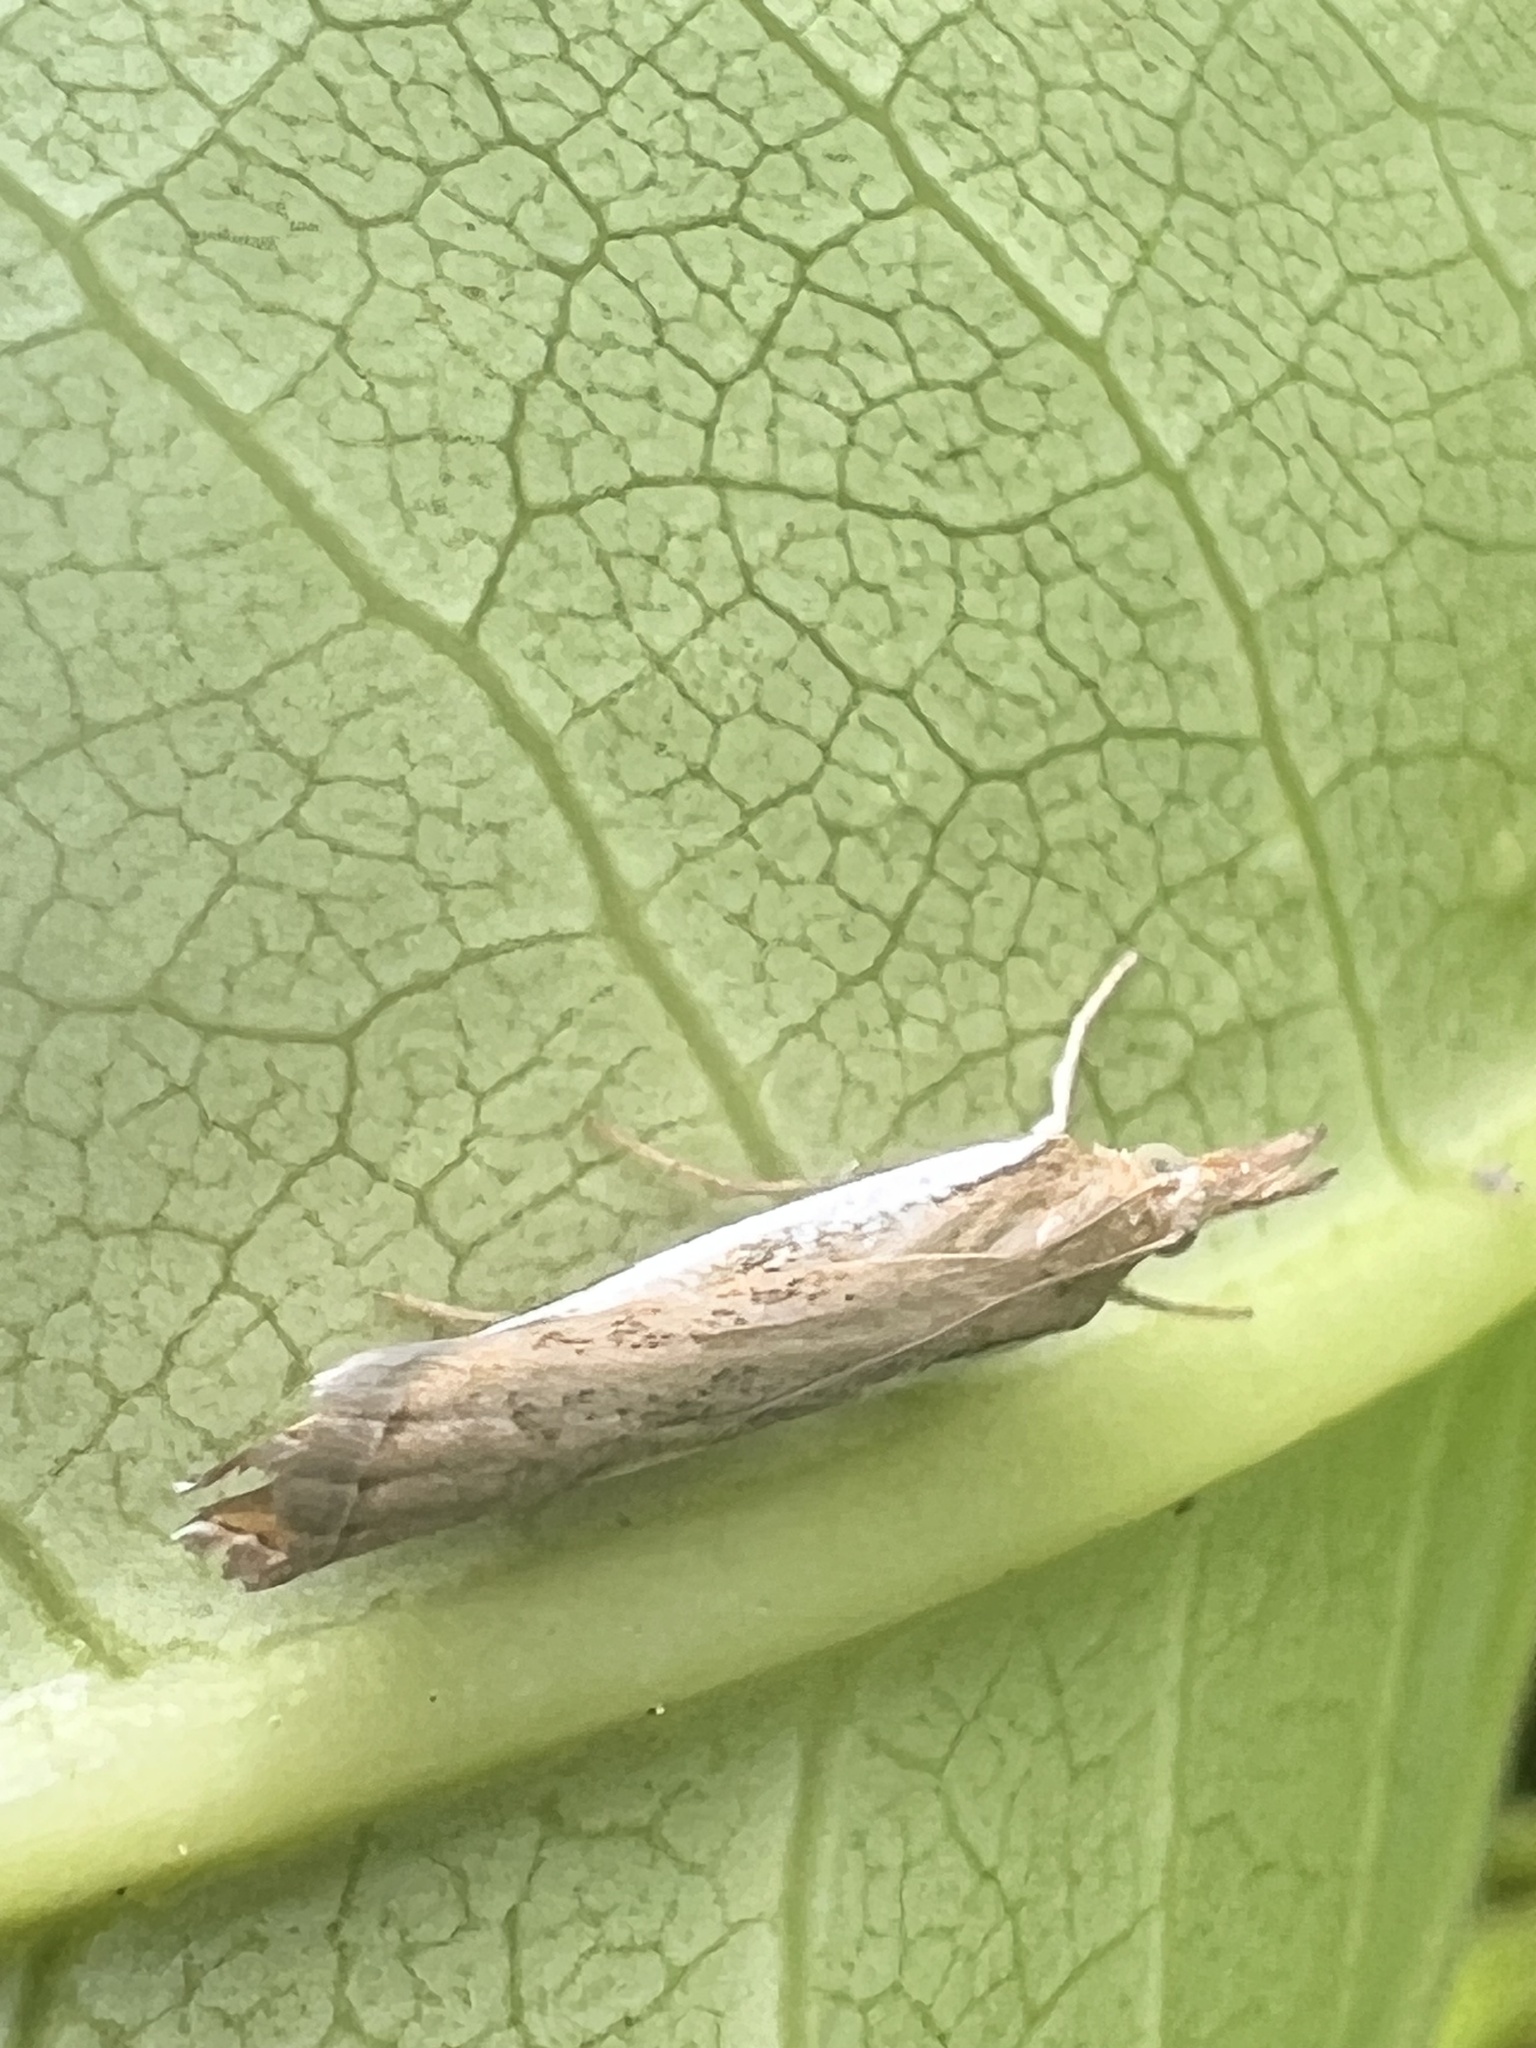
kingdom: Animalia
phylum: Arthropoda
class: Insecta
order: Lepidoptera
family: Crambidae
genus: Orocrambus
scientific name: Orocrambus flexuosellus
